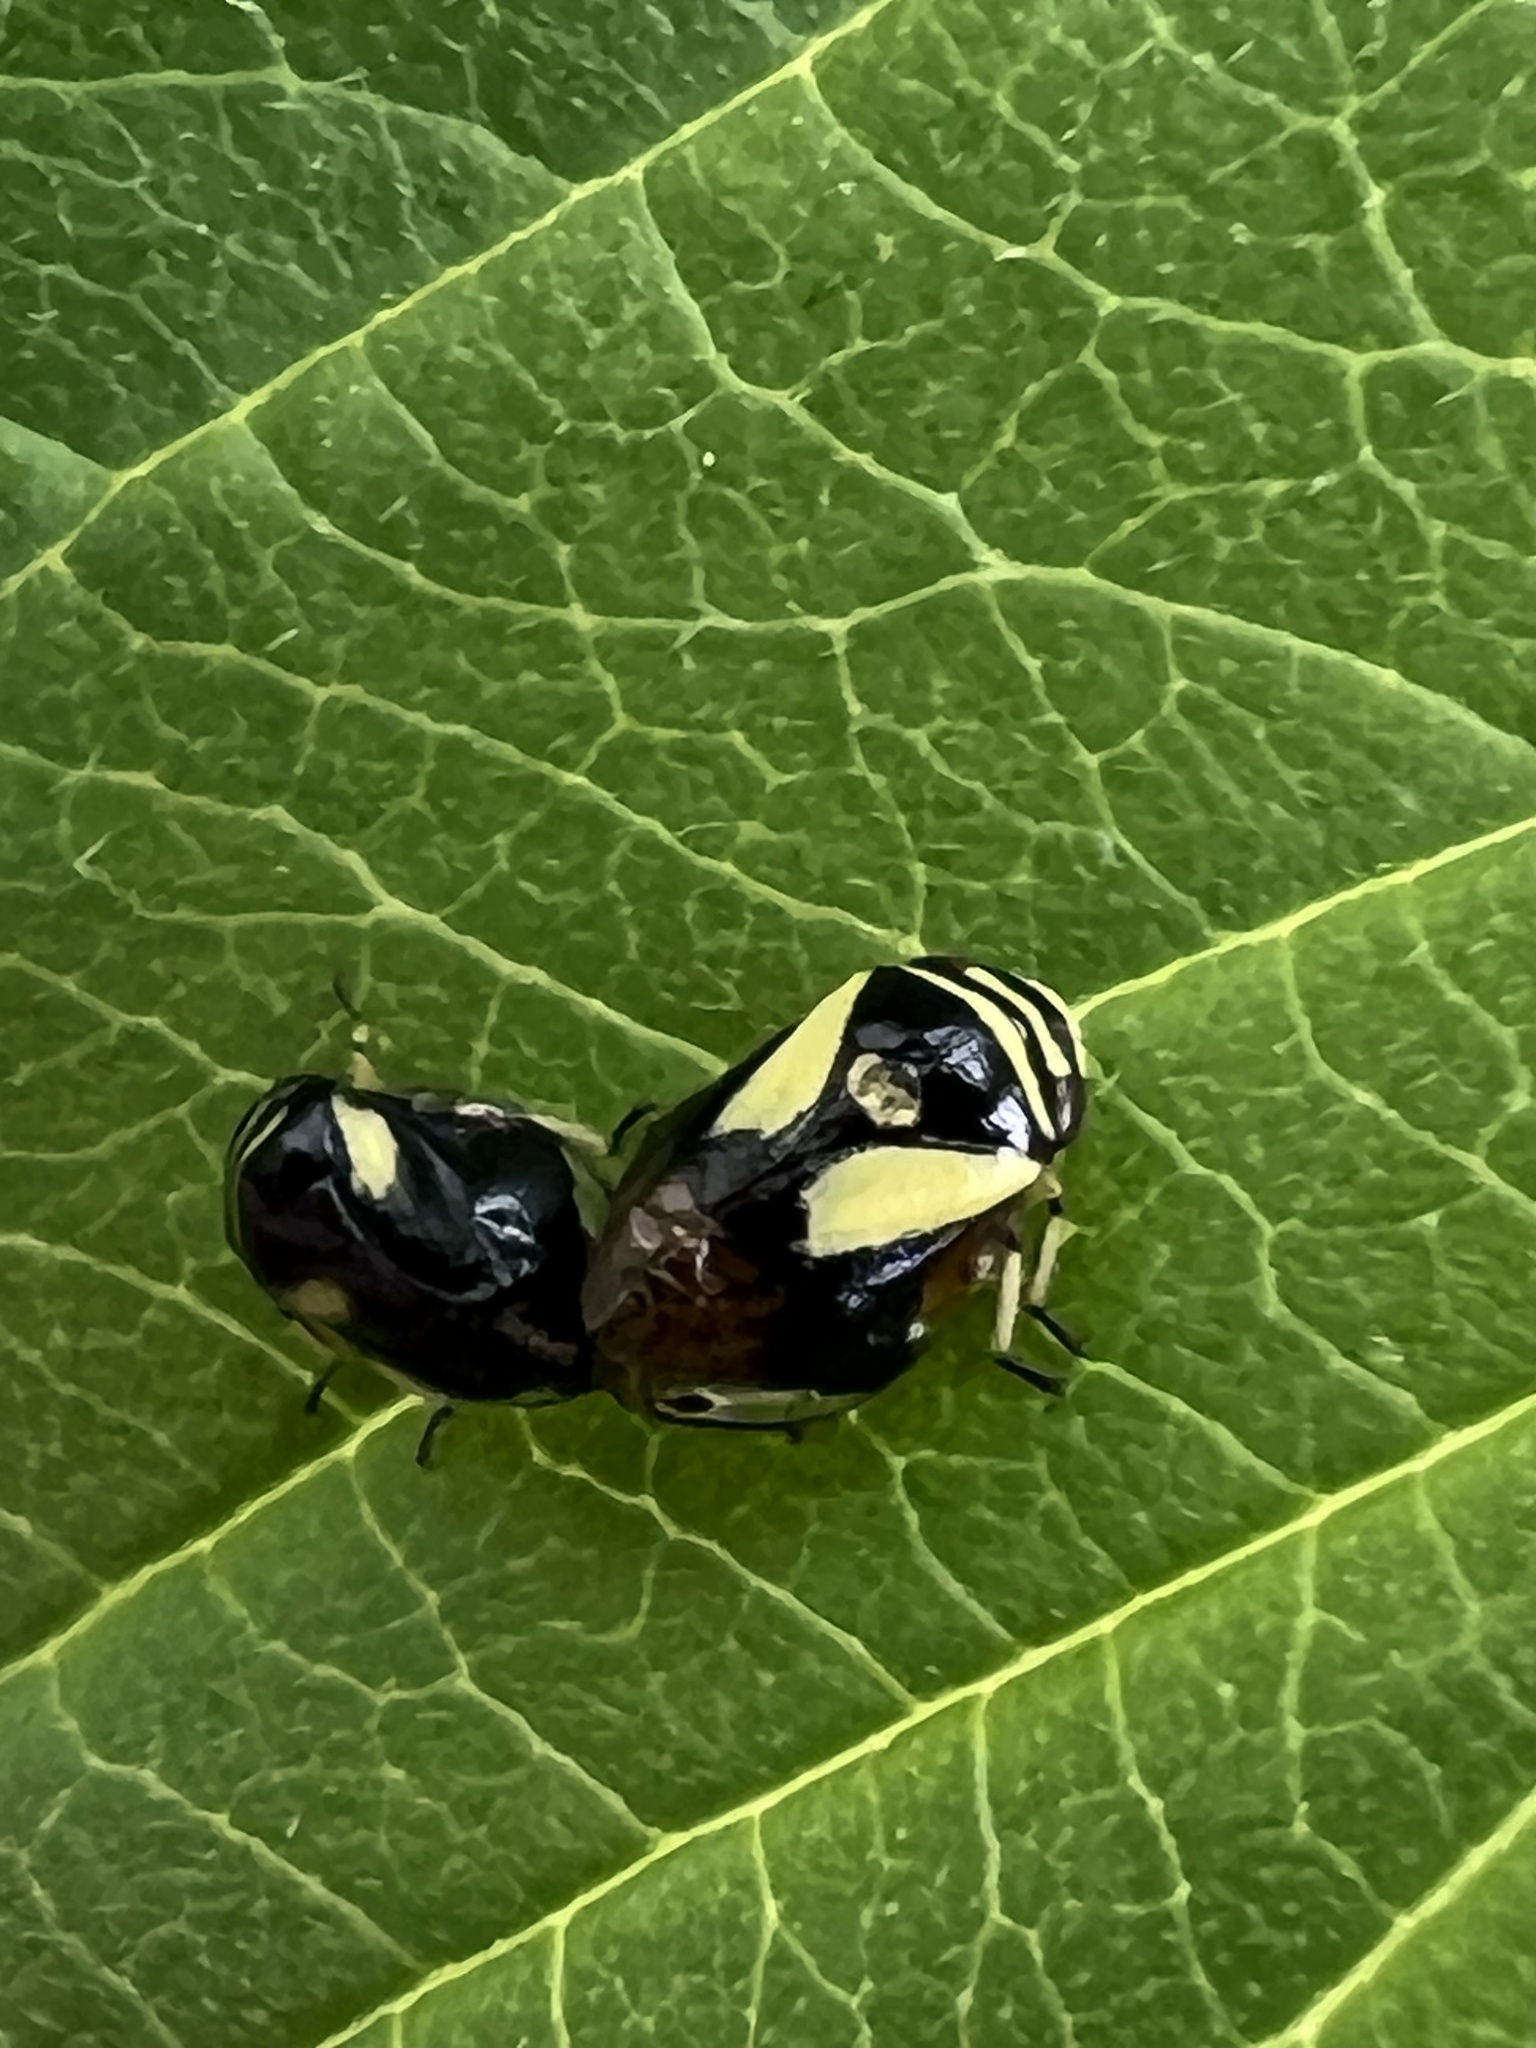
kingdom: Animalia
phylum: Arthropoda
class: Insecta
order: Hemiptera
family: Clastopteridae
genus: Clastoptera
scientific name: Clastoptera proteus
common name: Dogwood spittlebug
